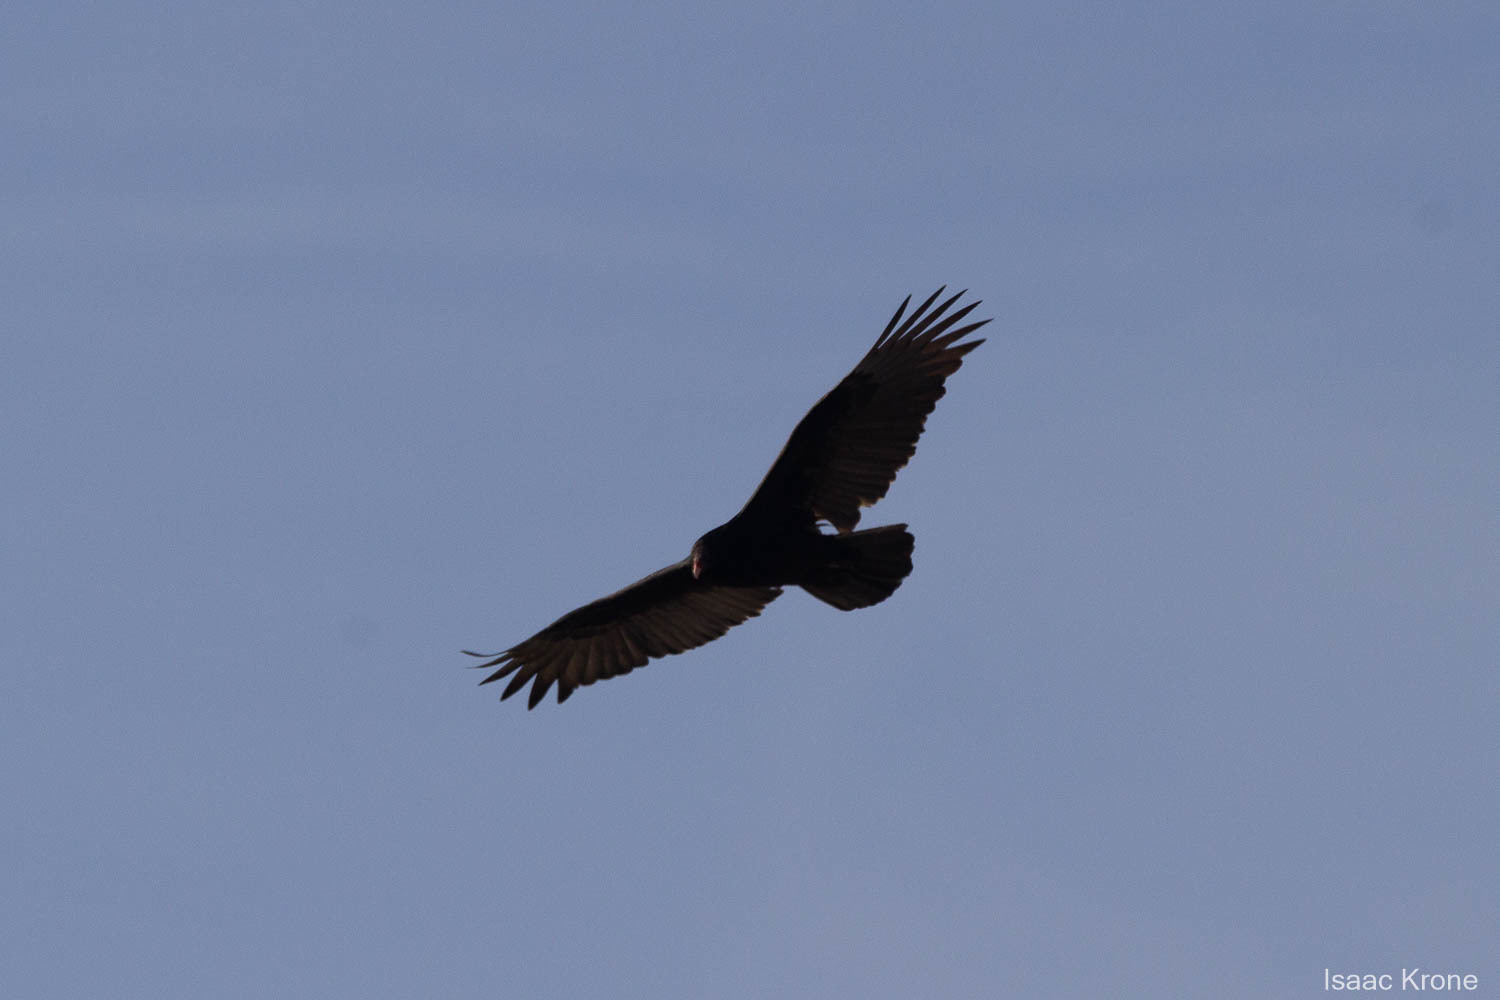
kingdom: Animalia
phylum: Chordata
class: Aves
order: Accipitriformes
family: Cathartidae
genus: Cathartes
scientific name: Cathartes aura
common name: Turkey vulture
